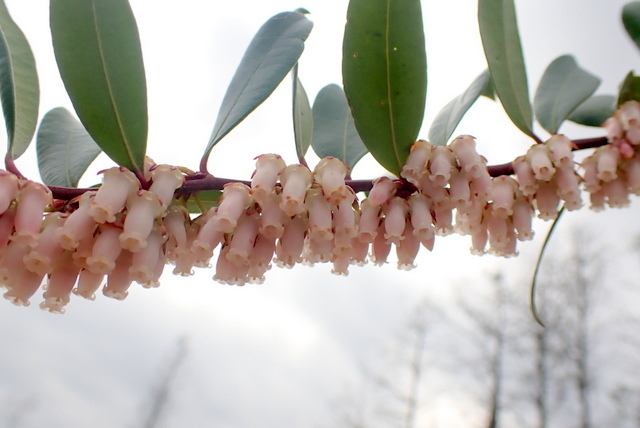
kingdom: Plantae
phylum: Tracheophyta
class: Magnoliopsida
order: Ericales
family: Ericaceae
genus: Lyonia
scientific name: Lyonia lucida
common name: Fetterbush
